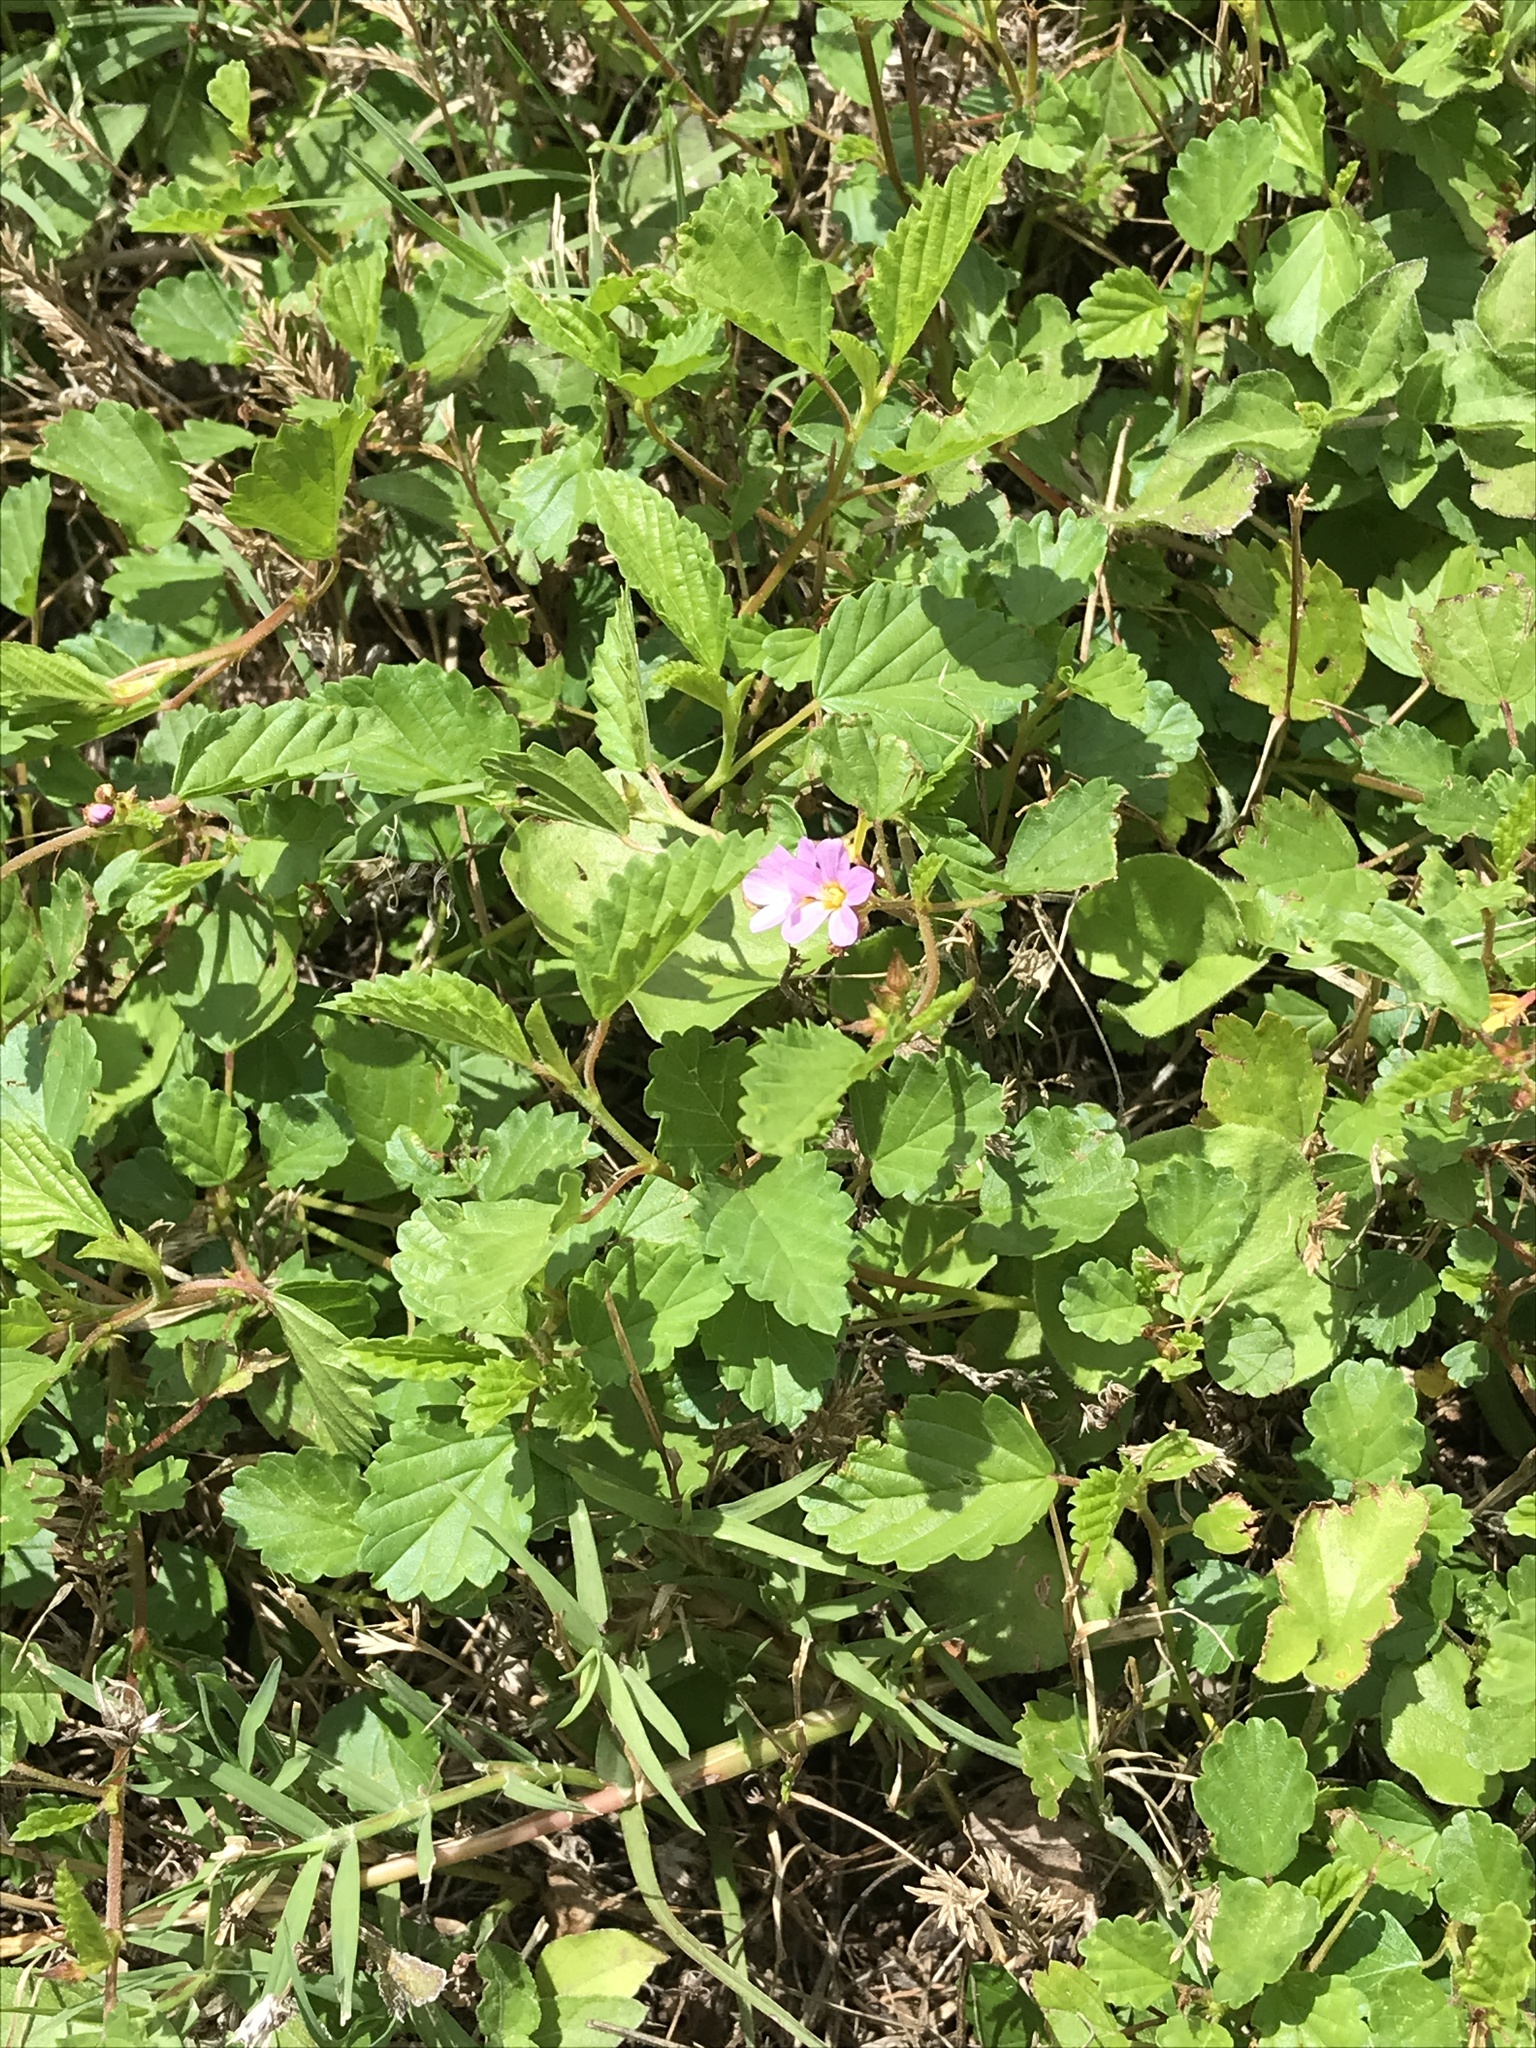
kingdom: Plantae
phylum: Tracheophyta
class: Magnoliopsida
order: Malvales
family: Malvaceae
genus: Melochia
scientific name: Melochia pyramidata
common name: Pyramidflower
